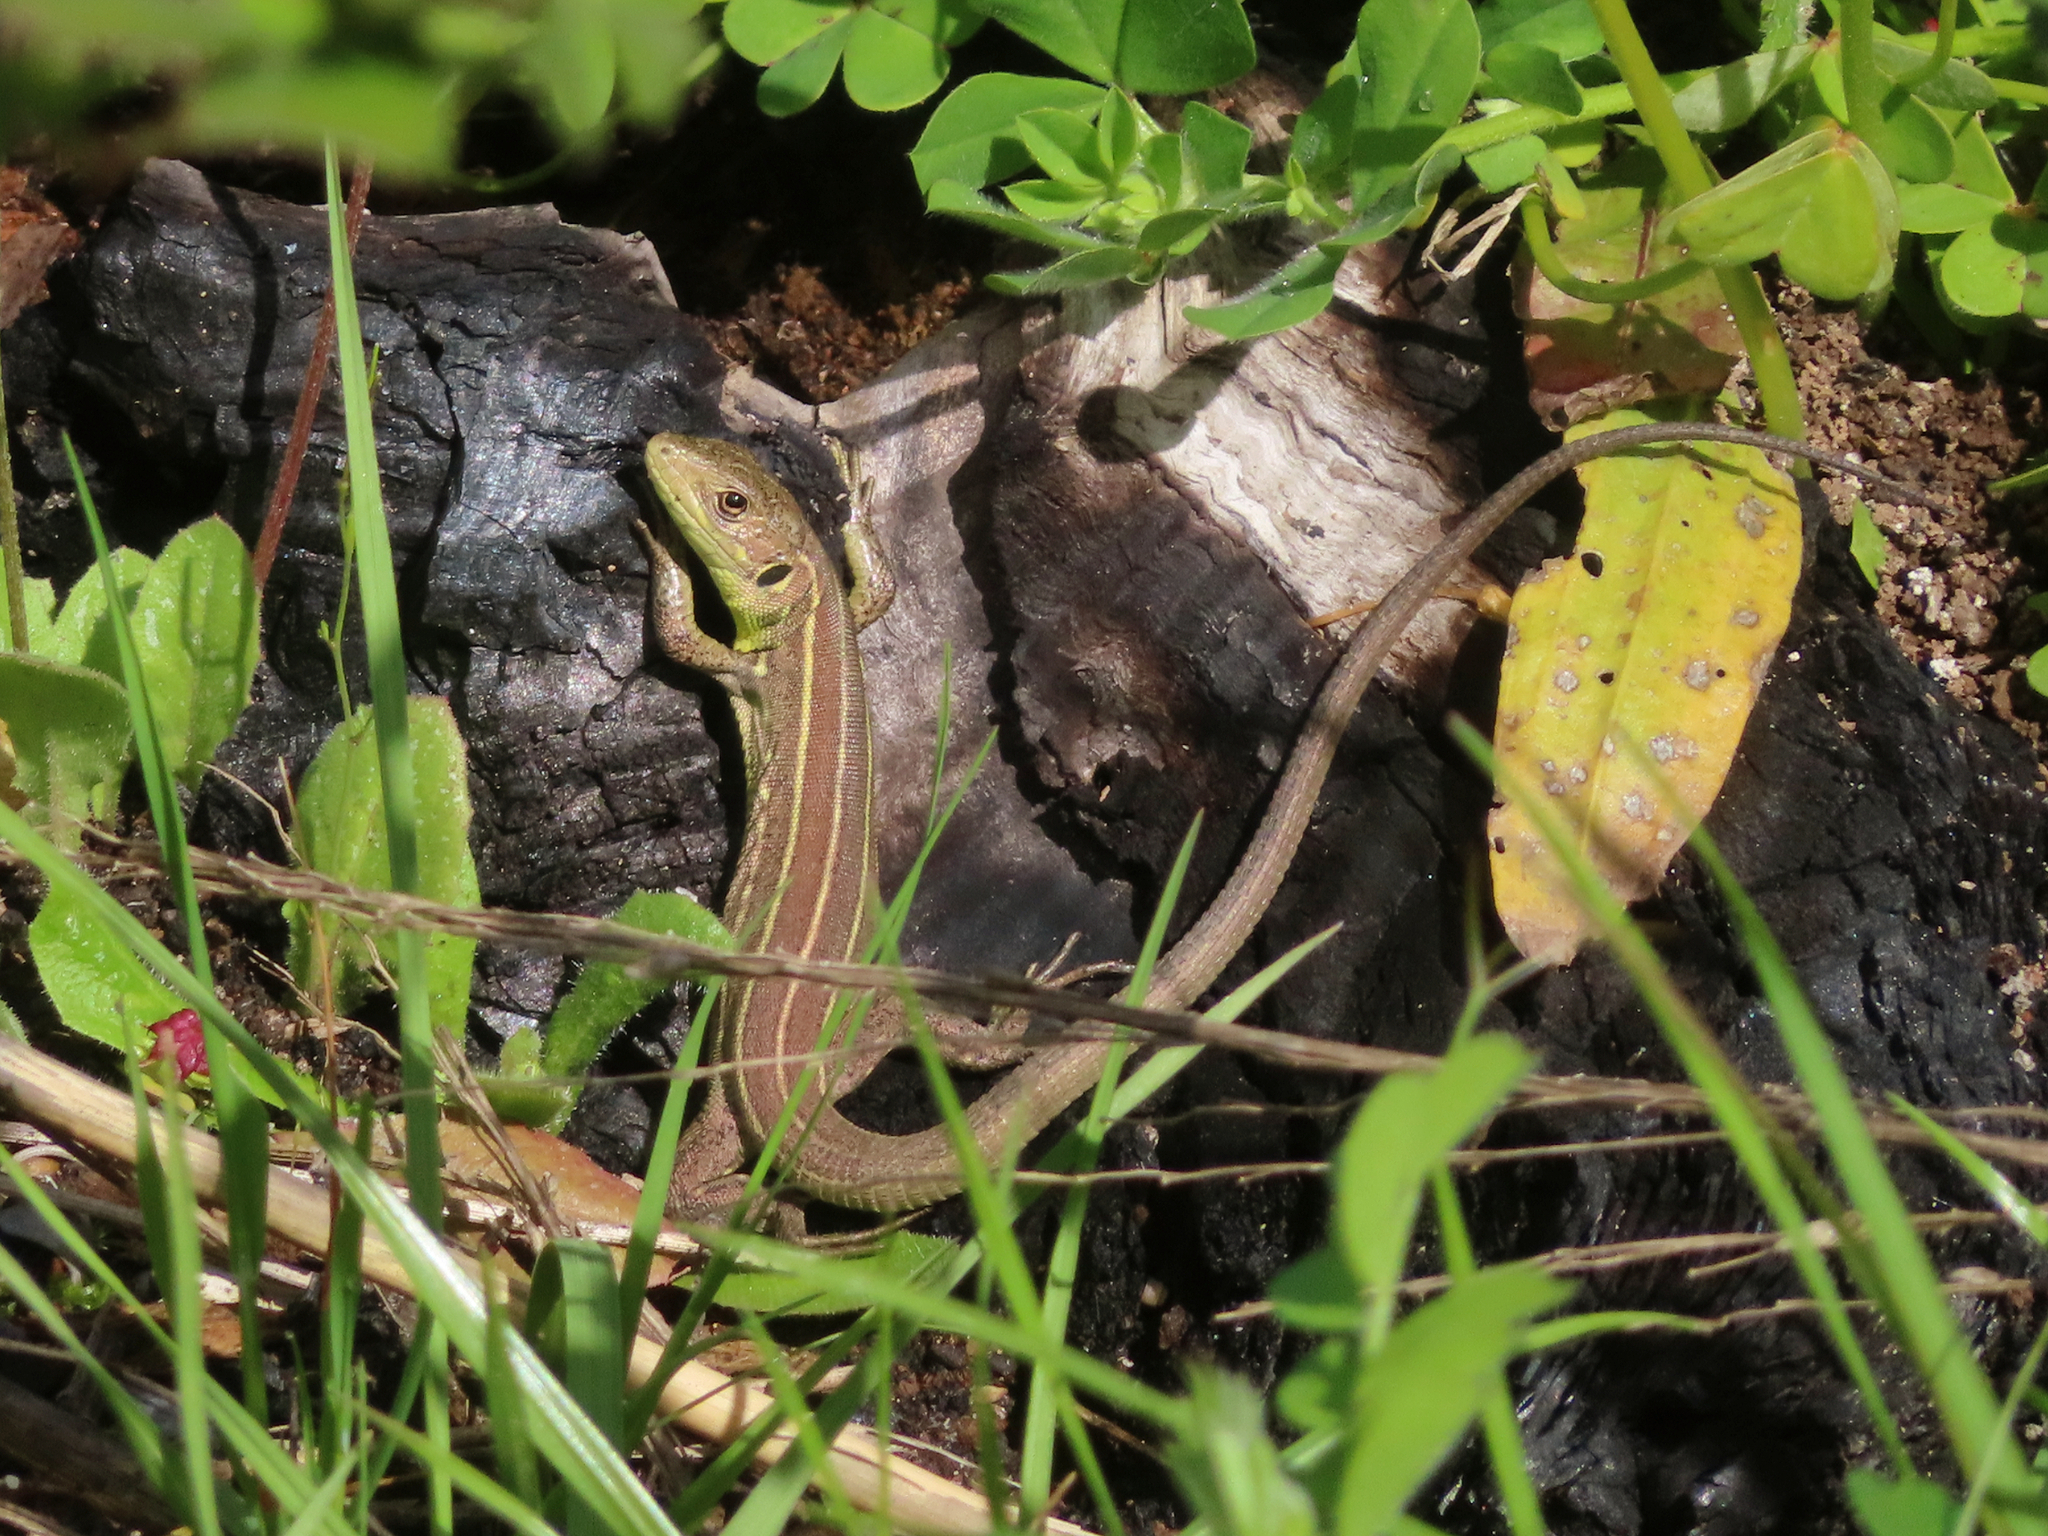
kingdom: Animalia
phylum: Chordata
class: Squamata
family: Lacertidae
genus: Lacerta
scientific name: Lacerta trilineata
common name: Balkan green lizard
